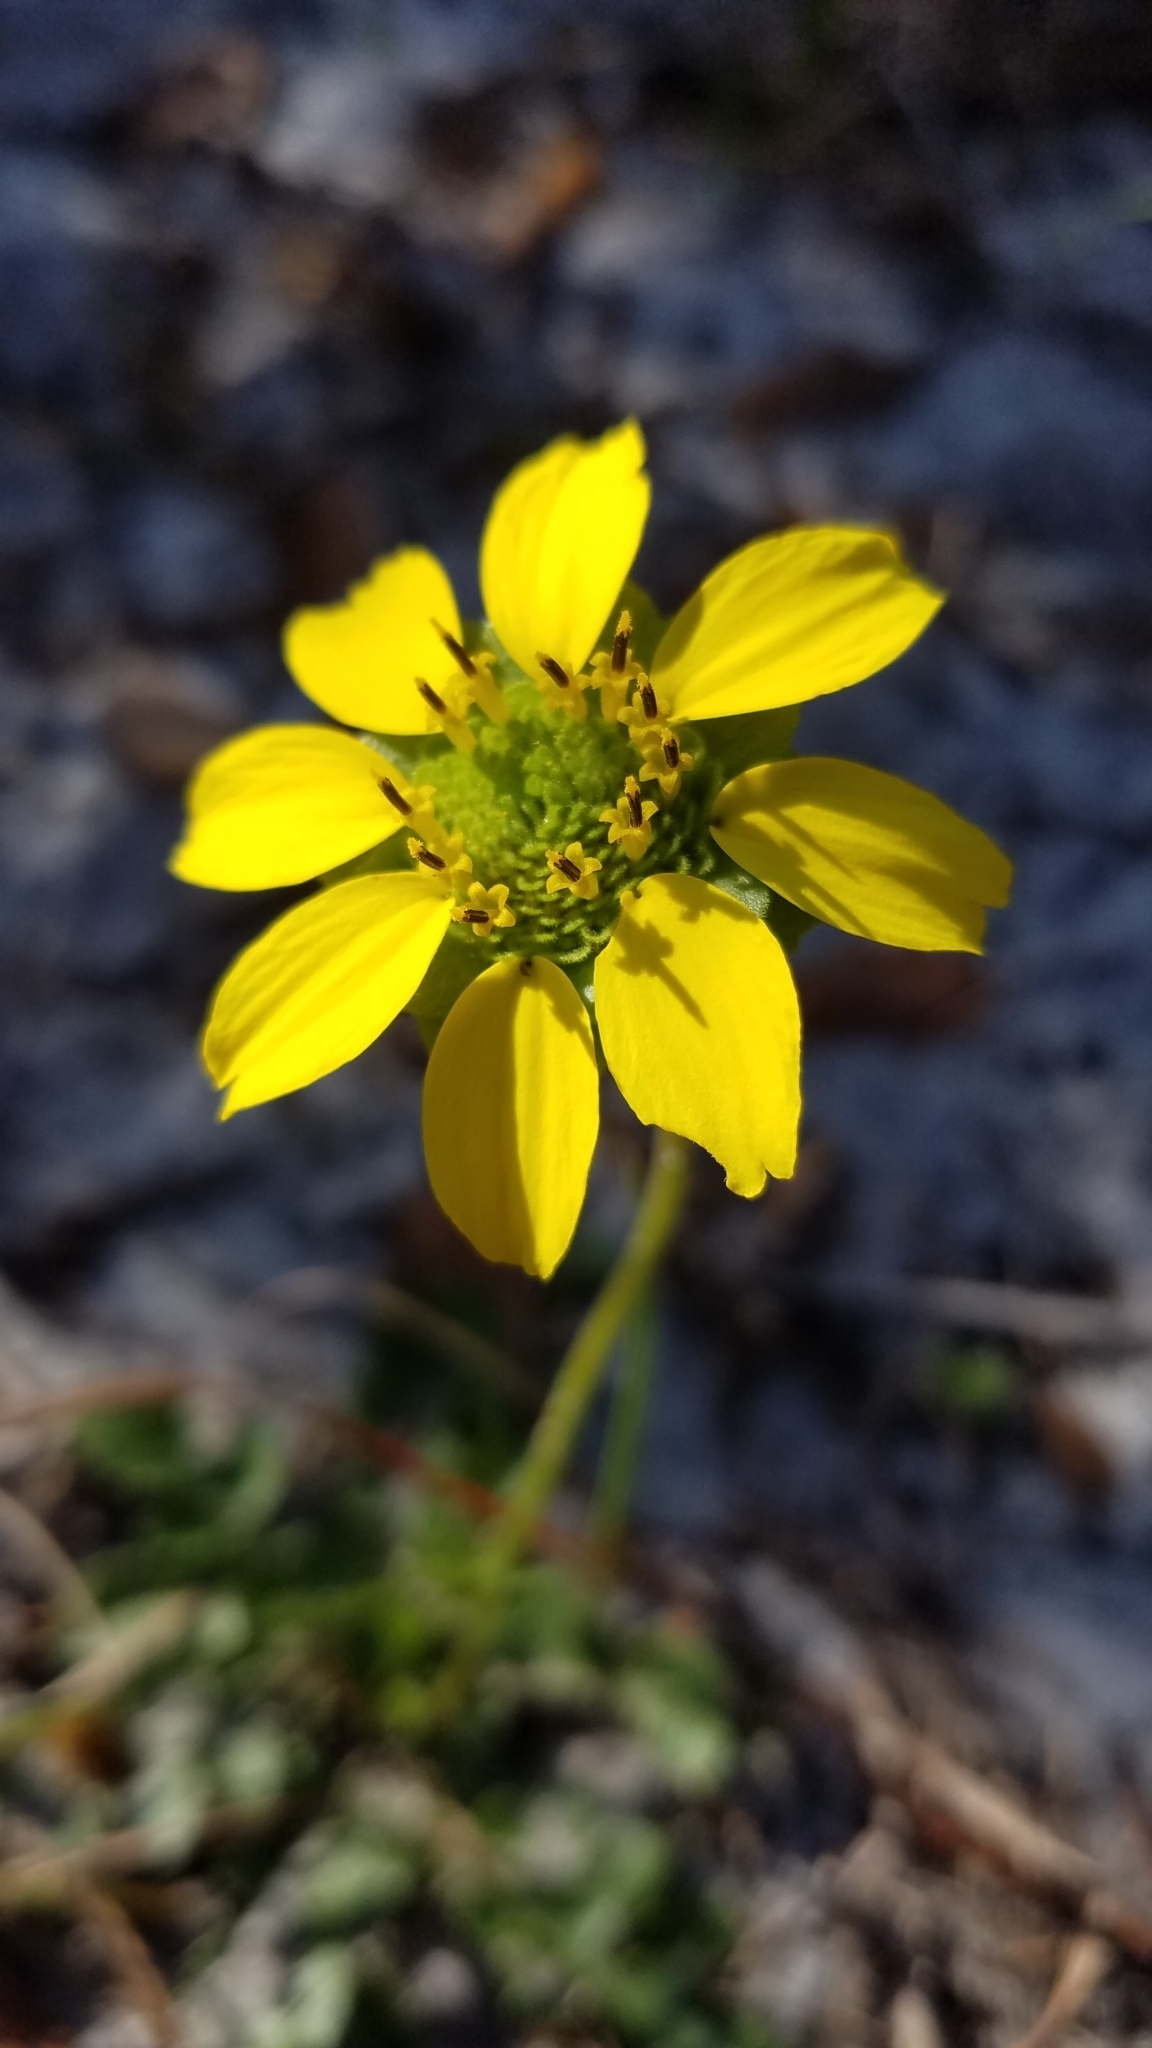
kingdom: Plantae
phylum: Tracheophyta
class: Magnoliopsida
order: Asterales
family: Asteraceae
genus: Berlandiera
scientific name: Berlandiera subacaulis
